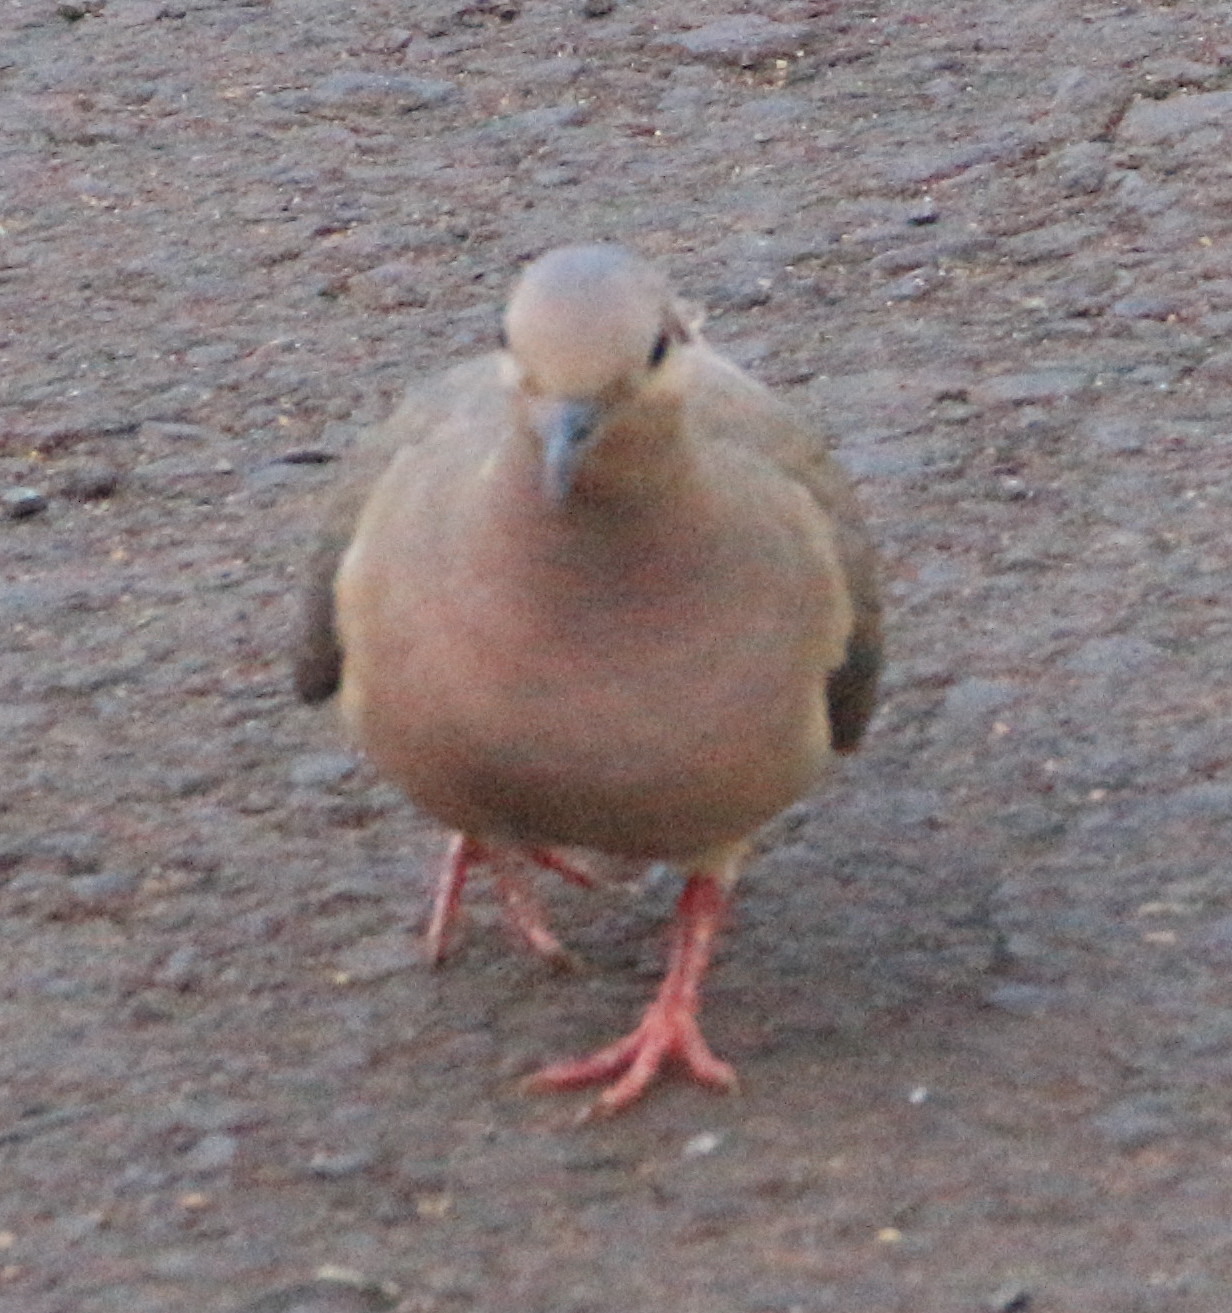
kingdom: Animalia
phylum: Chordata
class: Aves
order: Columbiformes
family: Columbidae
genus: Zenaida
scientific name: Zenaida auriculata
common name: Eared dove
